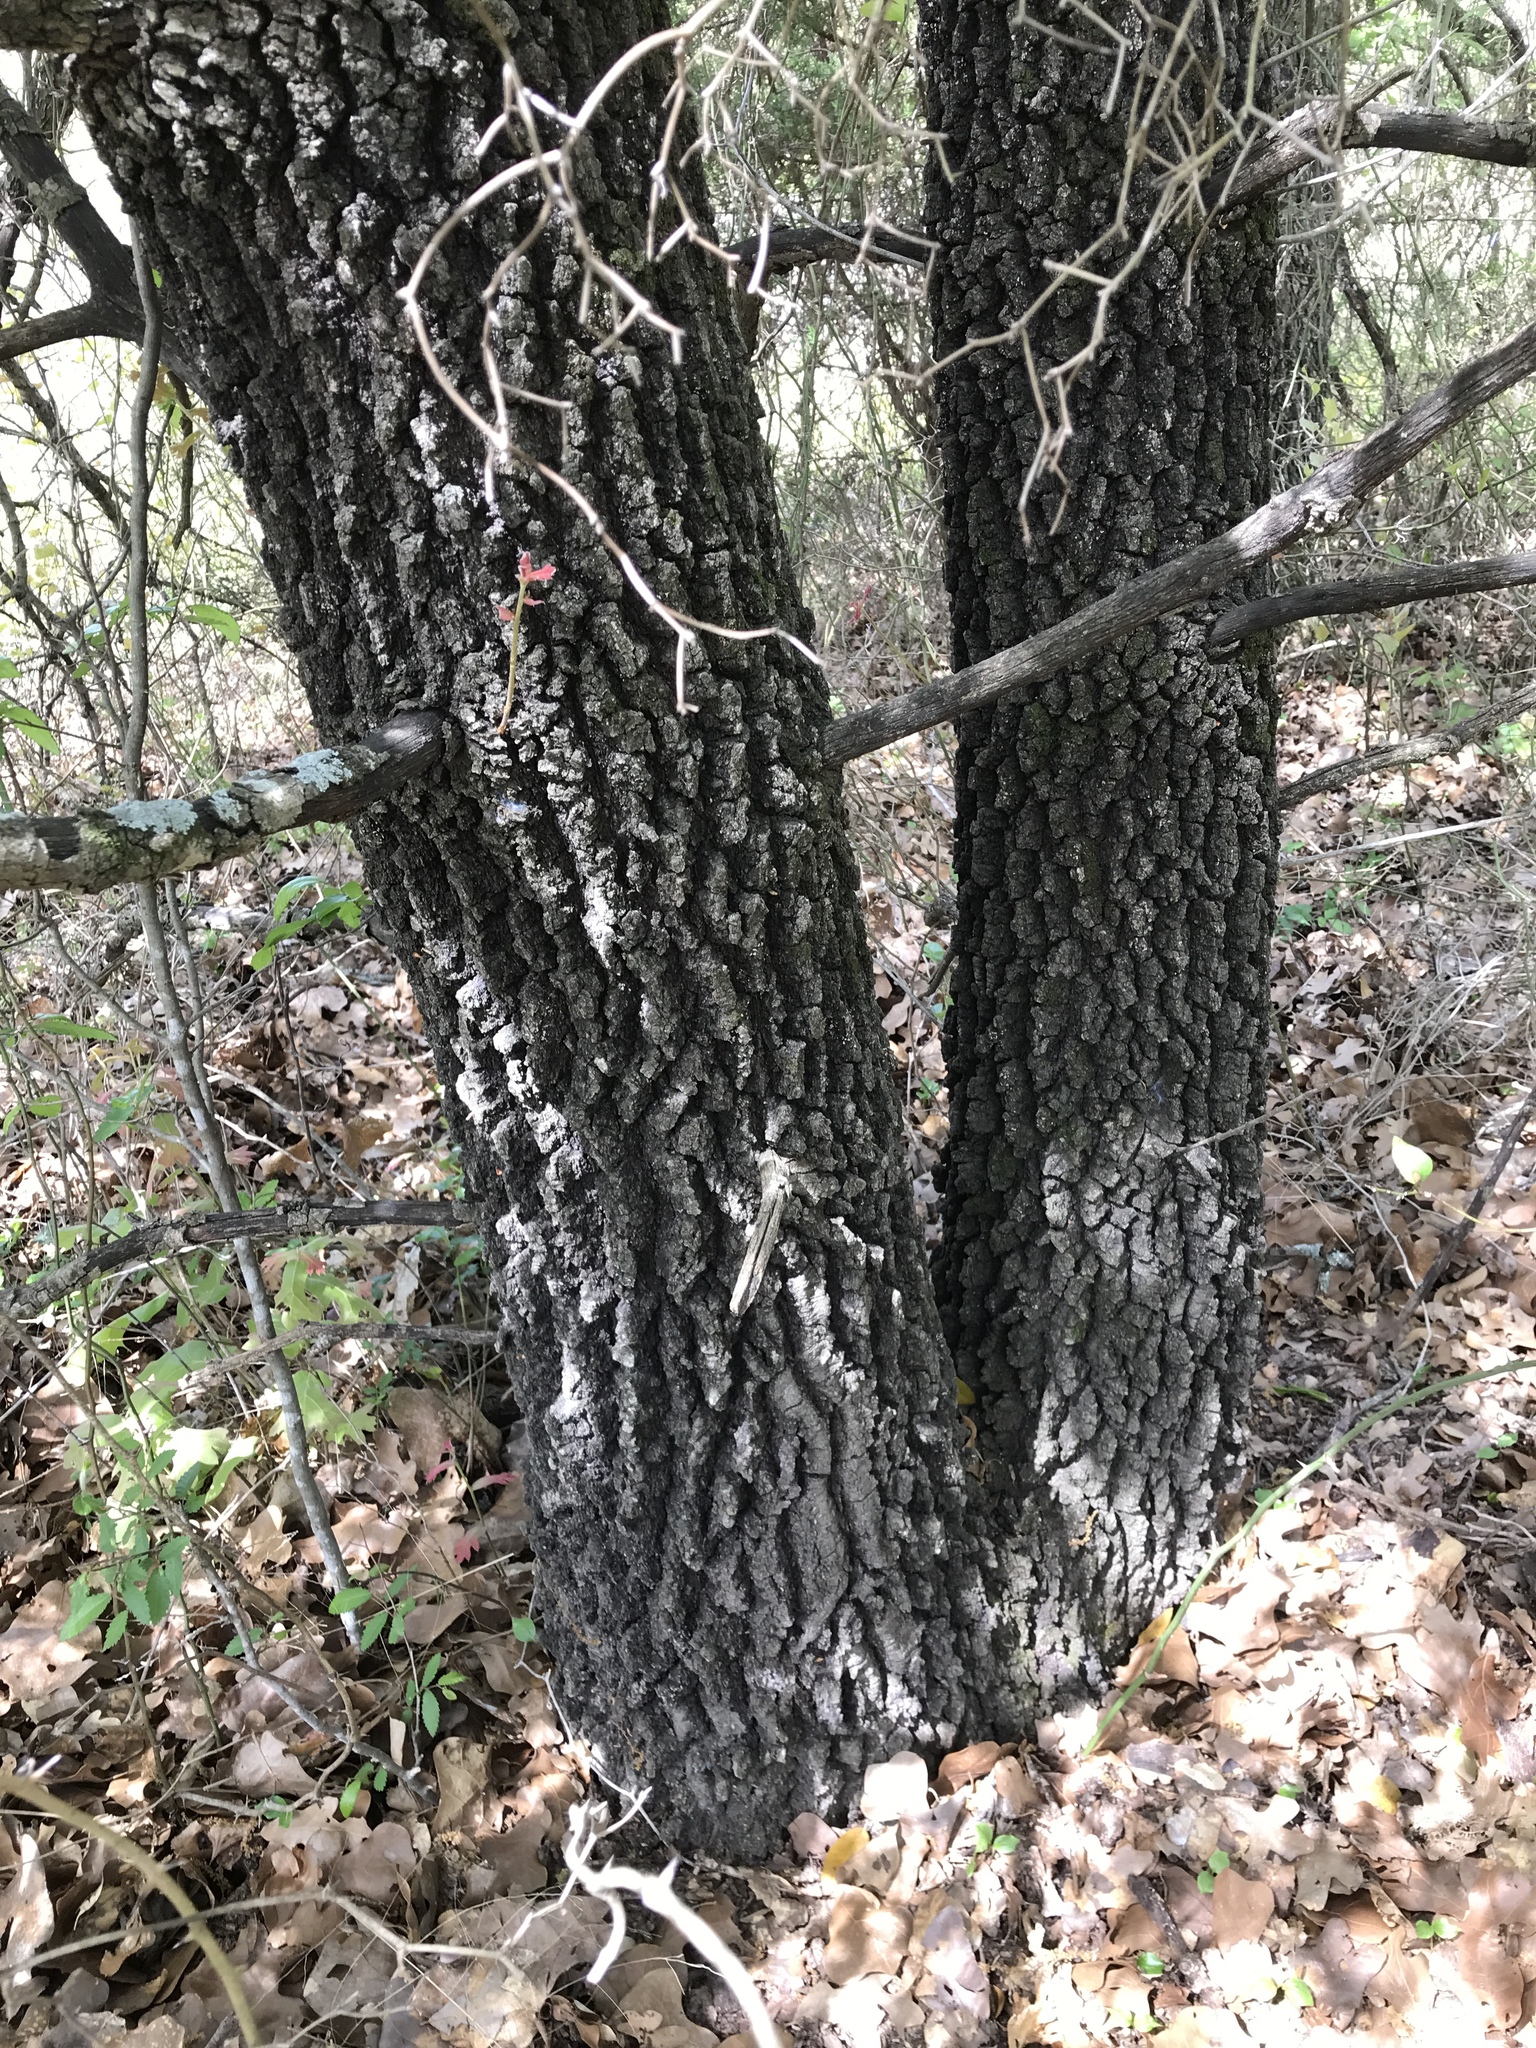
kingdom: Plantae
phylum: Tracheophyta
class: Magnoliopsida
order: Fagales
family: Fagaceae
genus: Quercus
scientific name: Quercus marilandica
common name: Blackjack oak
